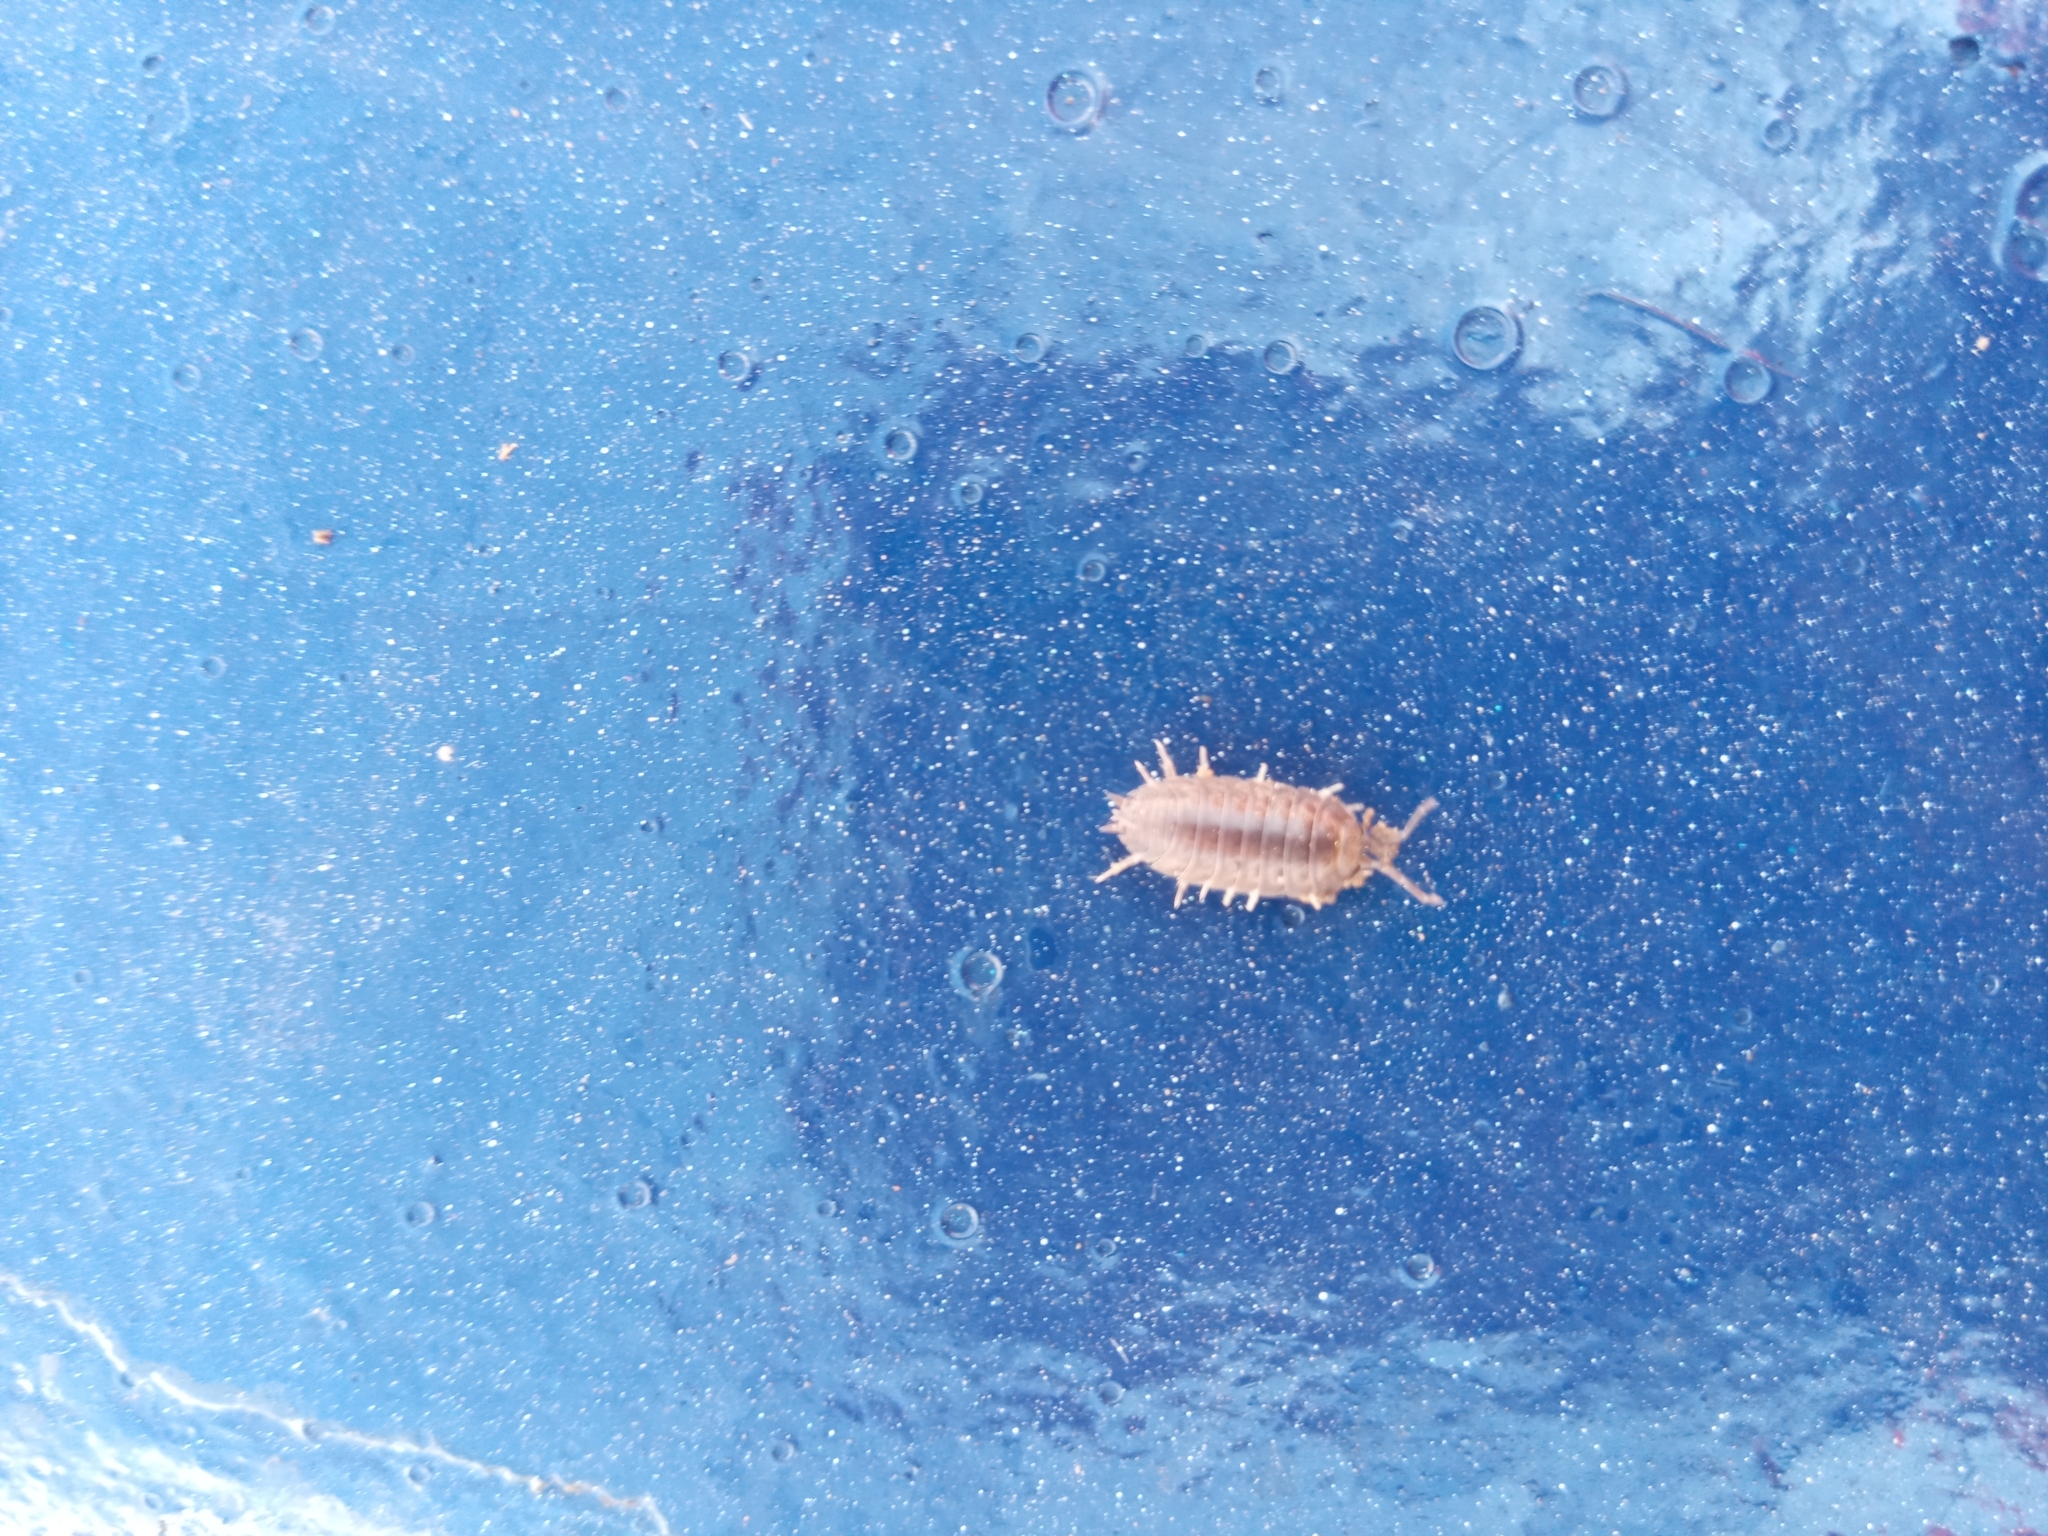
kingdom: Animalia
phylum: Arthropoda
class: Malacostraca
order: Isopoda
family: Porcellionidae
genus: Porcellio
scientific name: Porcellio laevis
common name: Swift woodlouse
